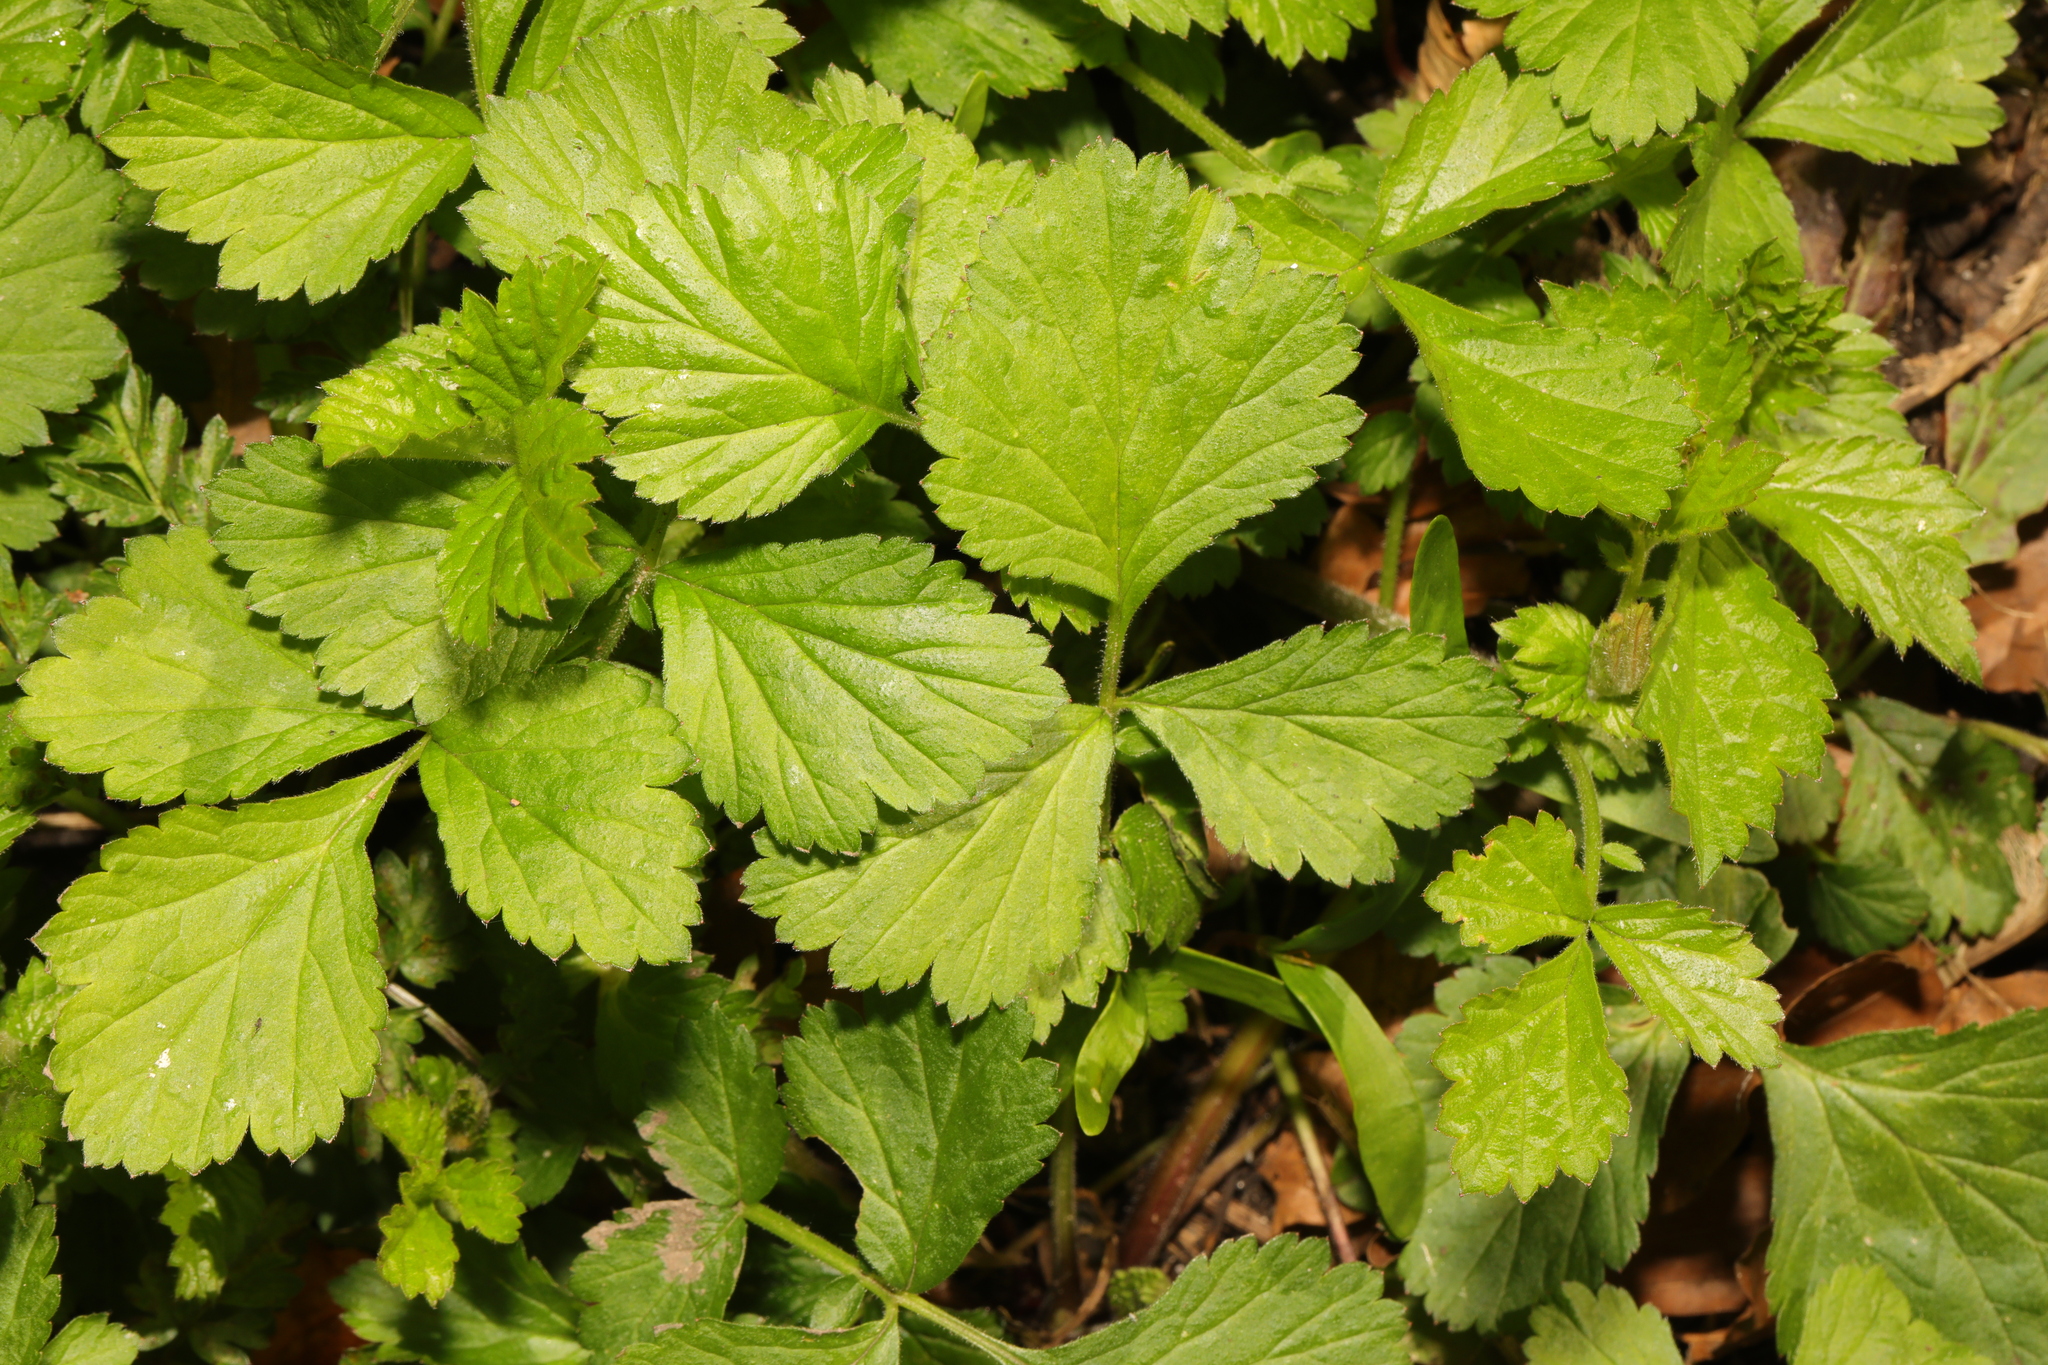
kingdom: Plantae
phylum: Tracheophyta
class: Magnoliopsida
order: Rosales
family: Rosaceae
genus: Geum
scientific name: Geum urbanum
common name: Wood avens
